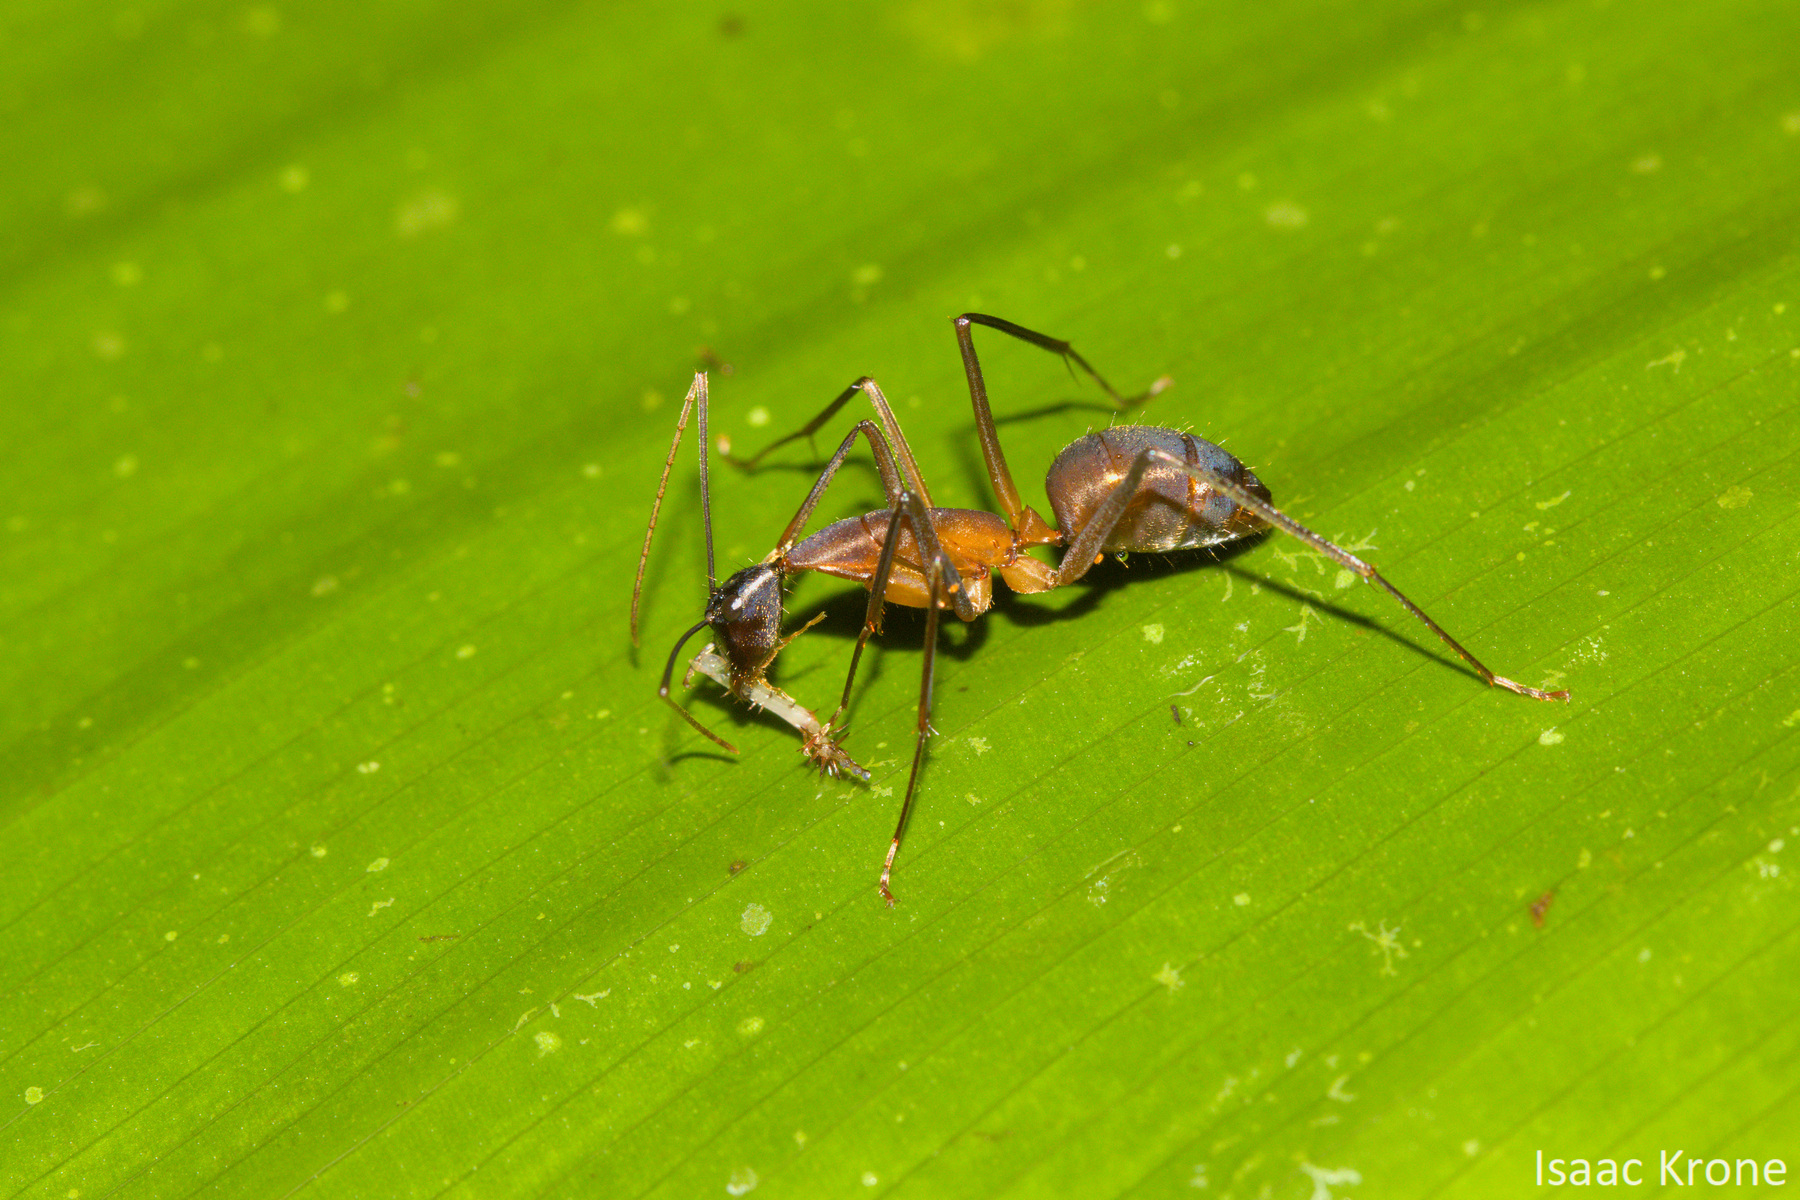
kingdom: Animalia
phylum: Arthropoda
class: Insecta
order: Hymenoptera
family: Formicidae
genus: Camponotus
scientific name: Camponotus ager
